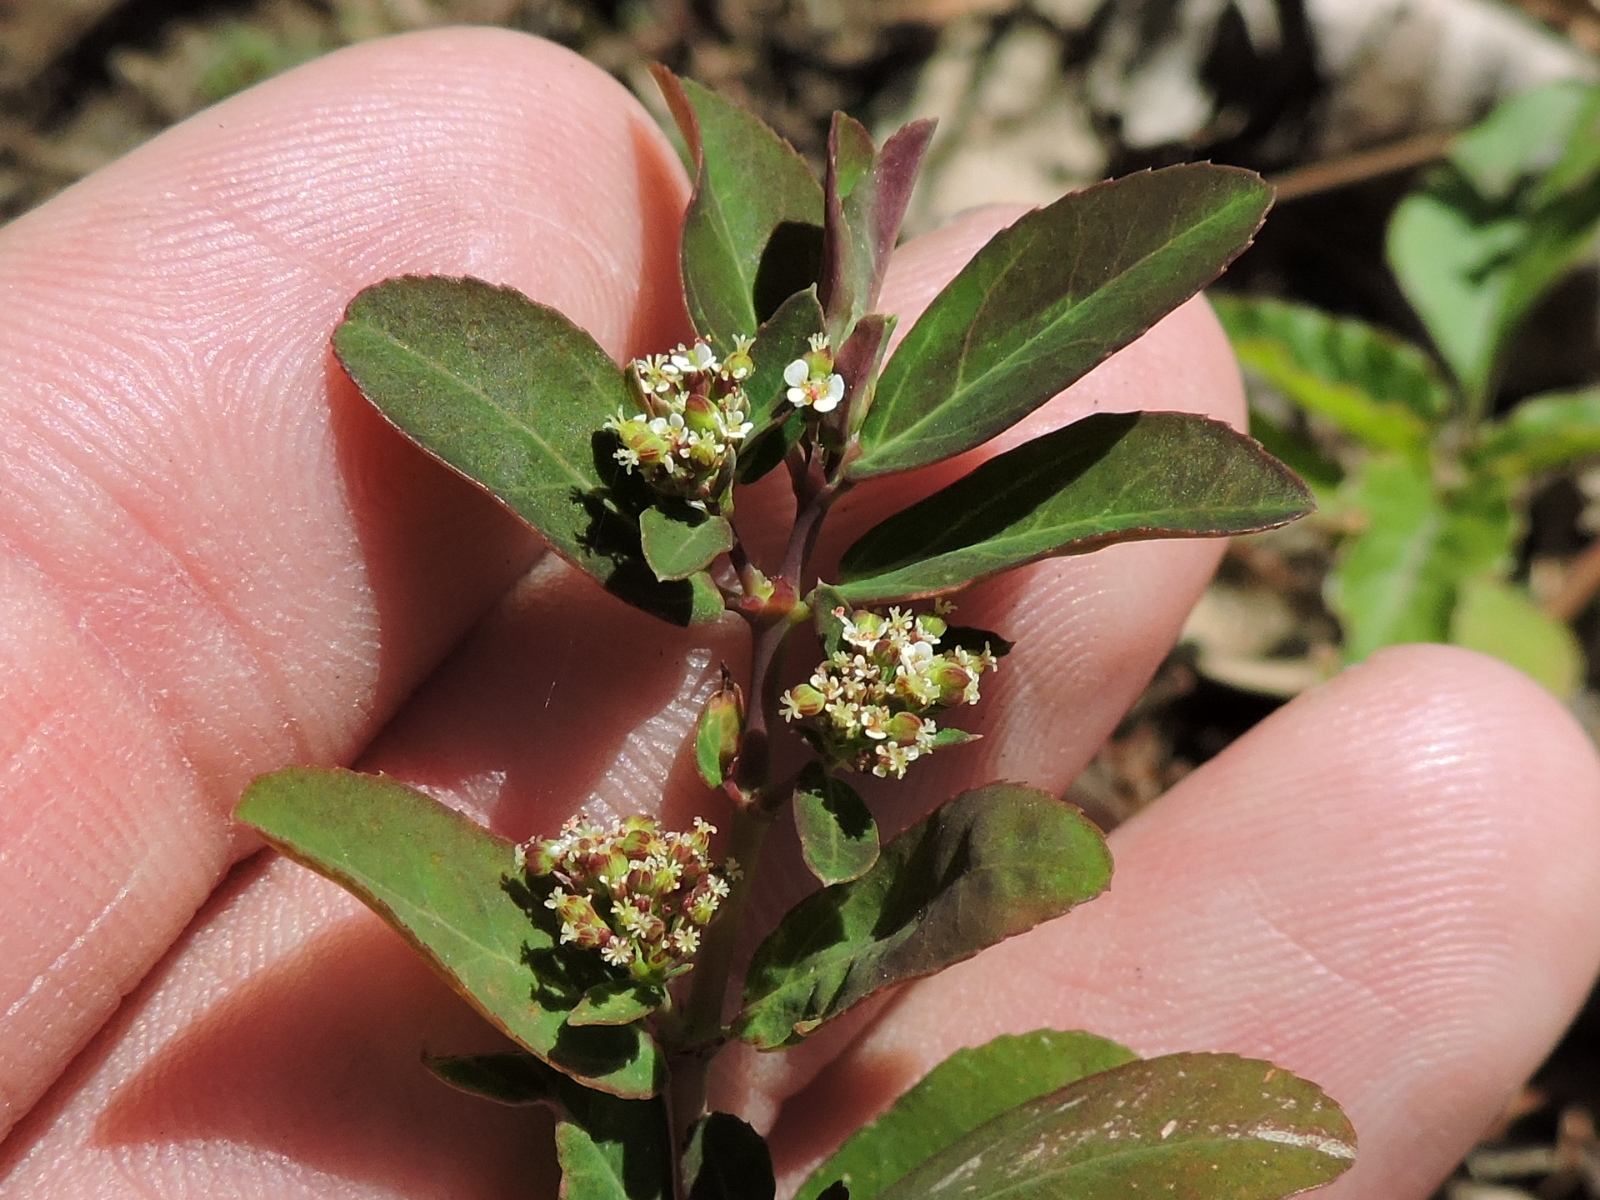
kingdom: Plantae
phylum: Tracheophyta
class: Magnoliopsida
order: Malpighiales
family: Euphorbiaceae
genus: Euphorbia
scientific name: Euphorbia hypericifolia
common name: Graceful sandmat
